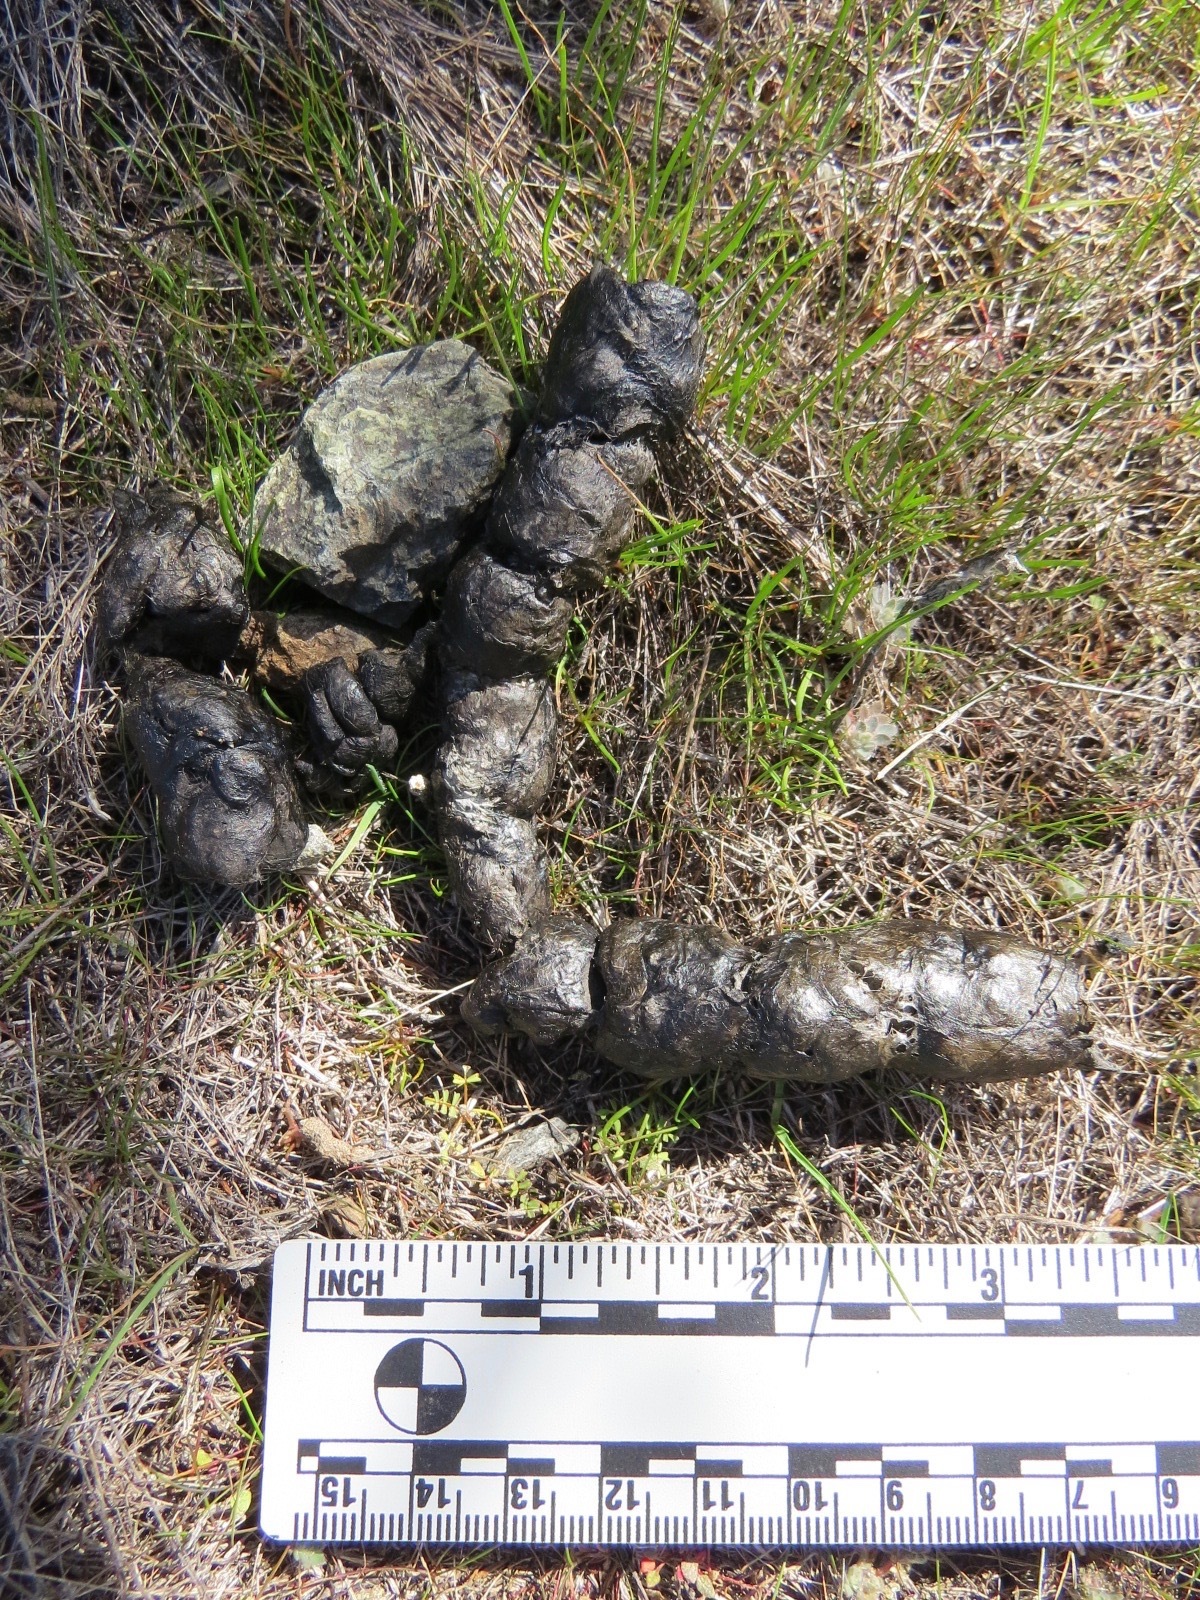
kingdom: Animalia
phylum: Chordata
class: Mammalia
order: Carnivora
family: Felidae
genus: Lynx
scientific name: Lynx rufus
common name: Bobcat
